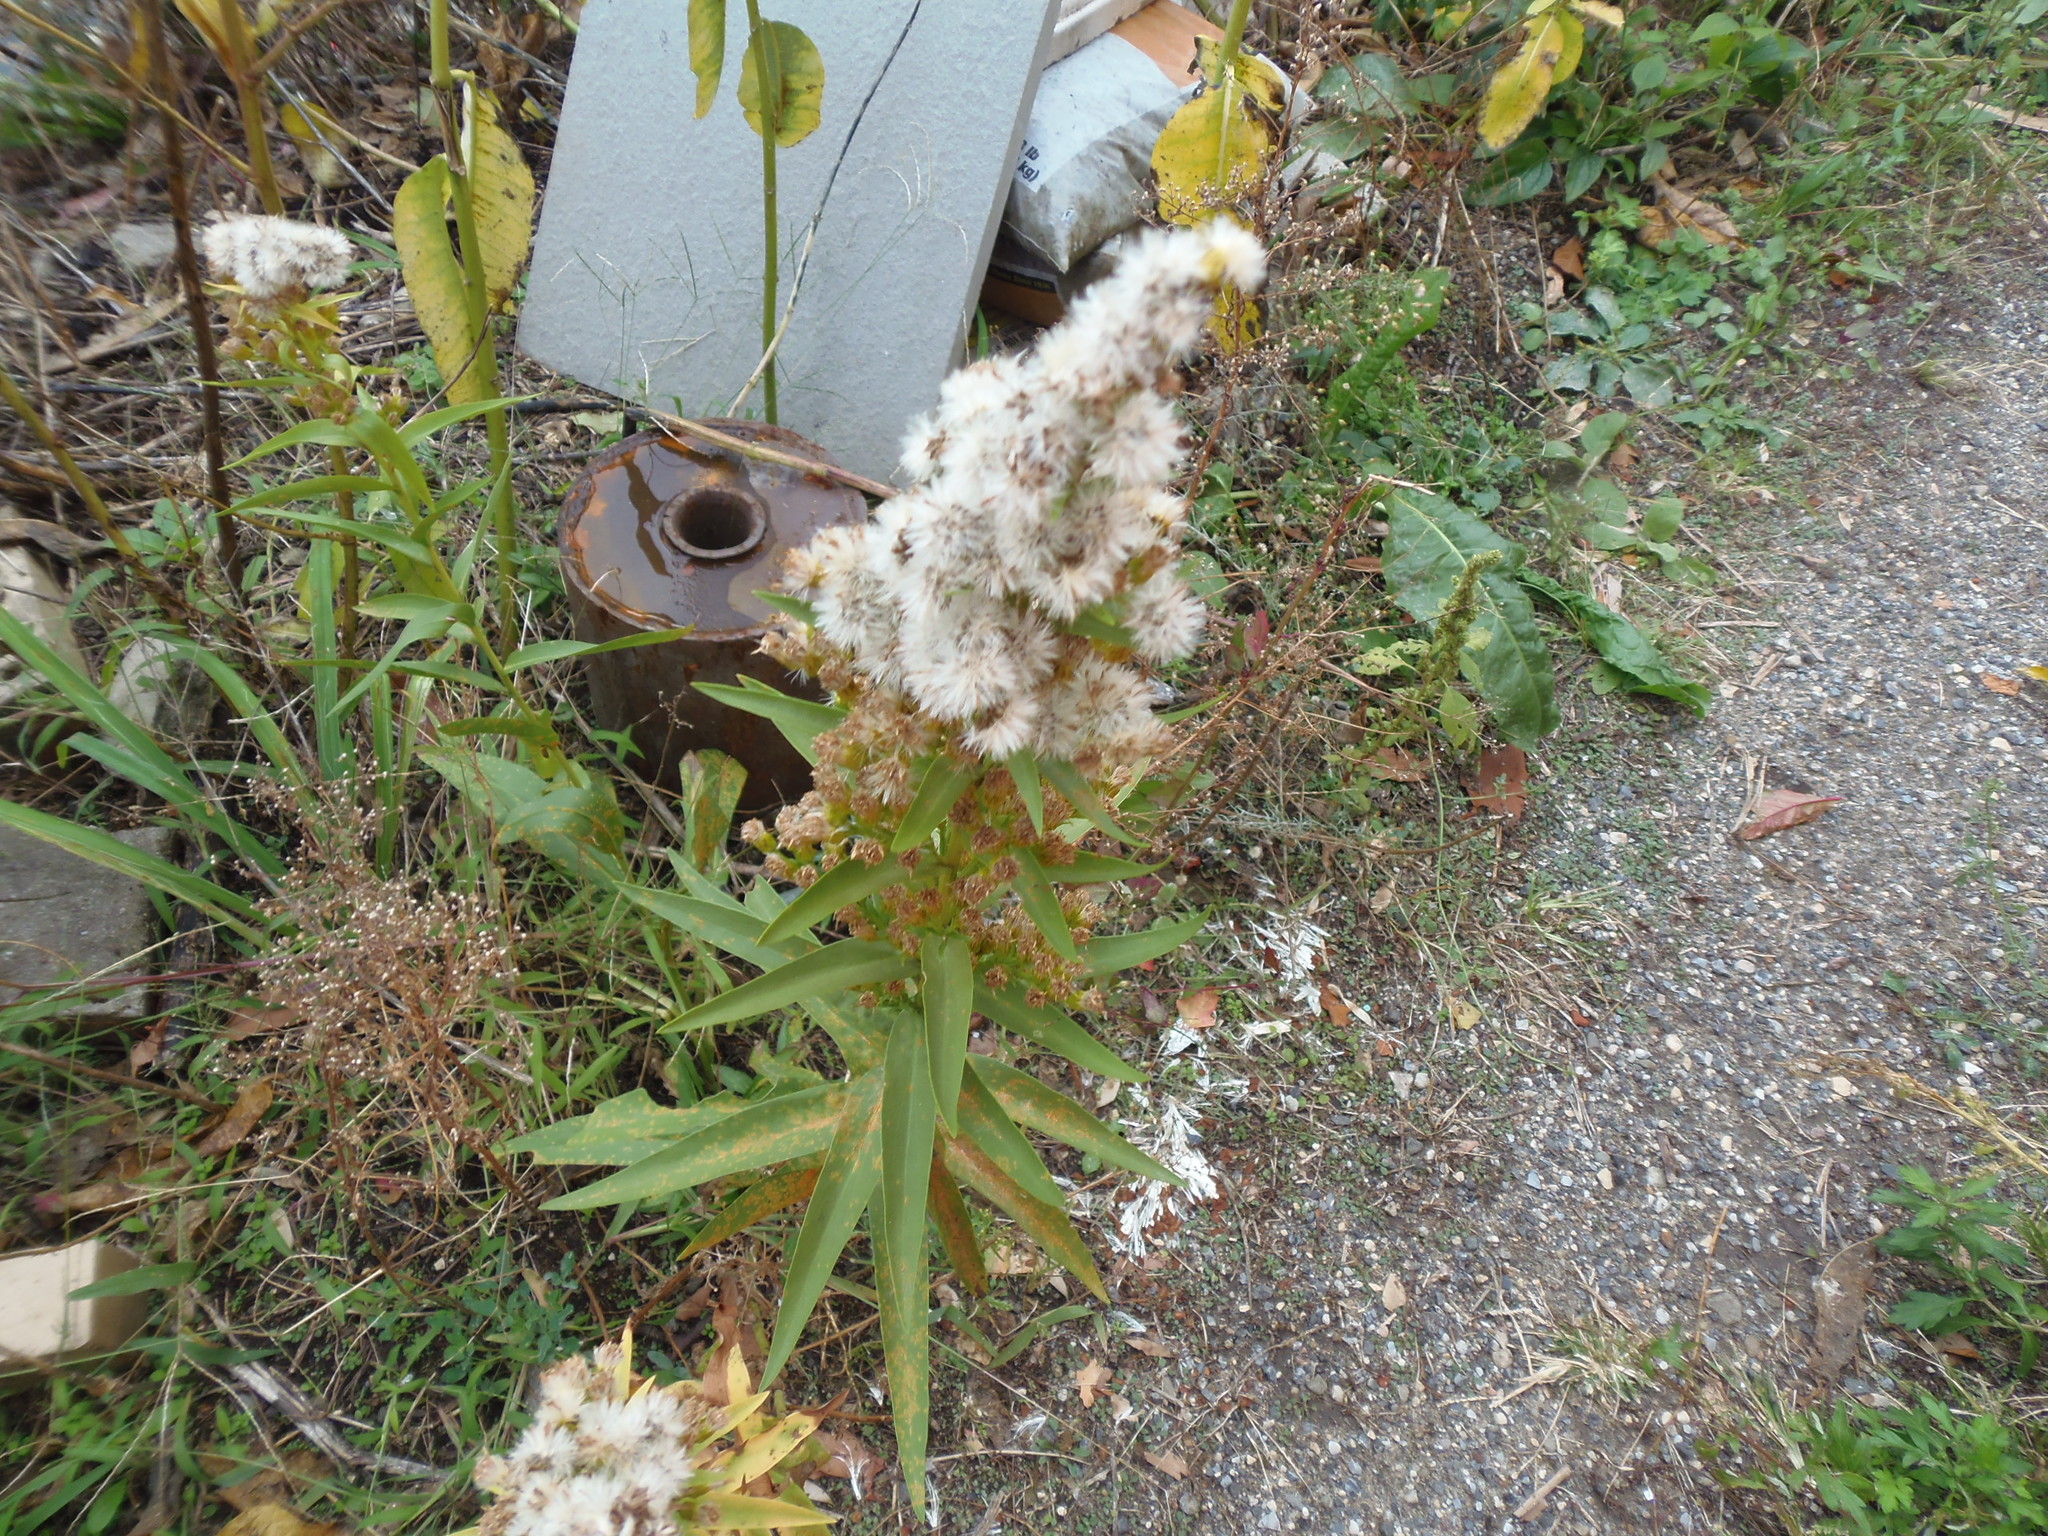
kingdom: Plantae
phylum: Tracheophyta
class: Magnoliopsida
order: Asterales
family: Asteraceae
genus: Solidago
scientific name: Solidago sempervirens
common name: Salt-marsh goldenrod
